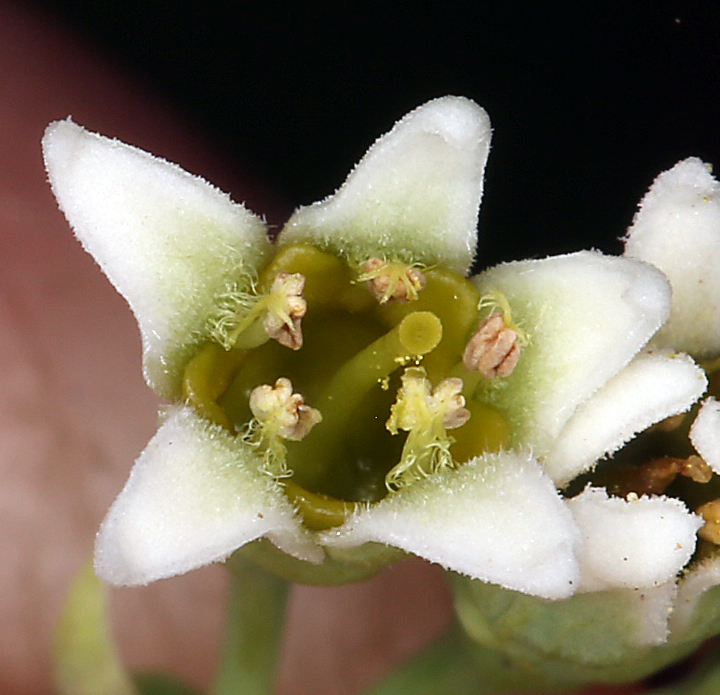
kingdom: Plantae
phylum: Tracheophyta
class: Magnoliopsida
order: Santalales
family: Comandraceae
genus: Comandra
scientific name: Comandra umbellata
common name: Bastard toadflax
